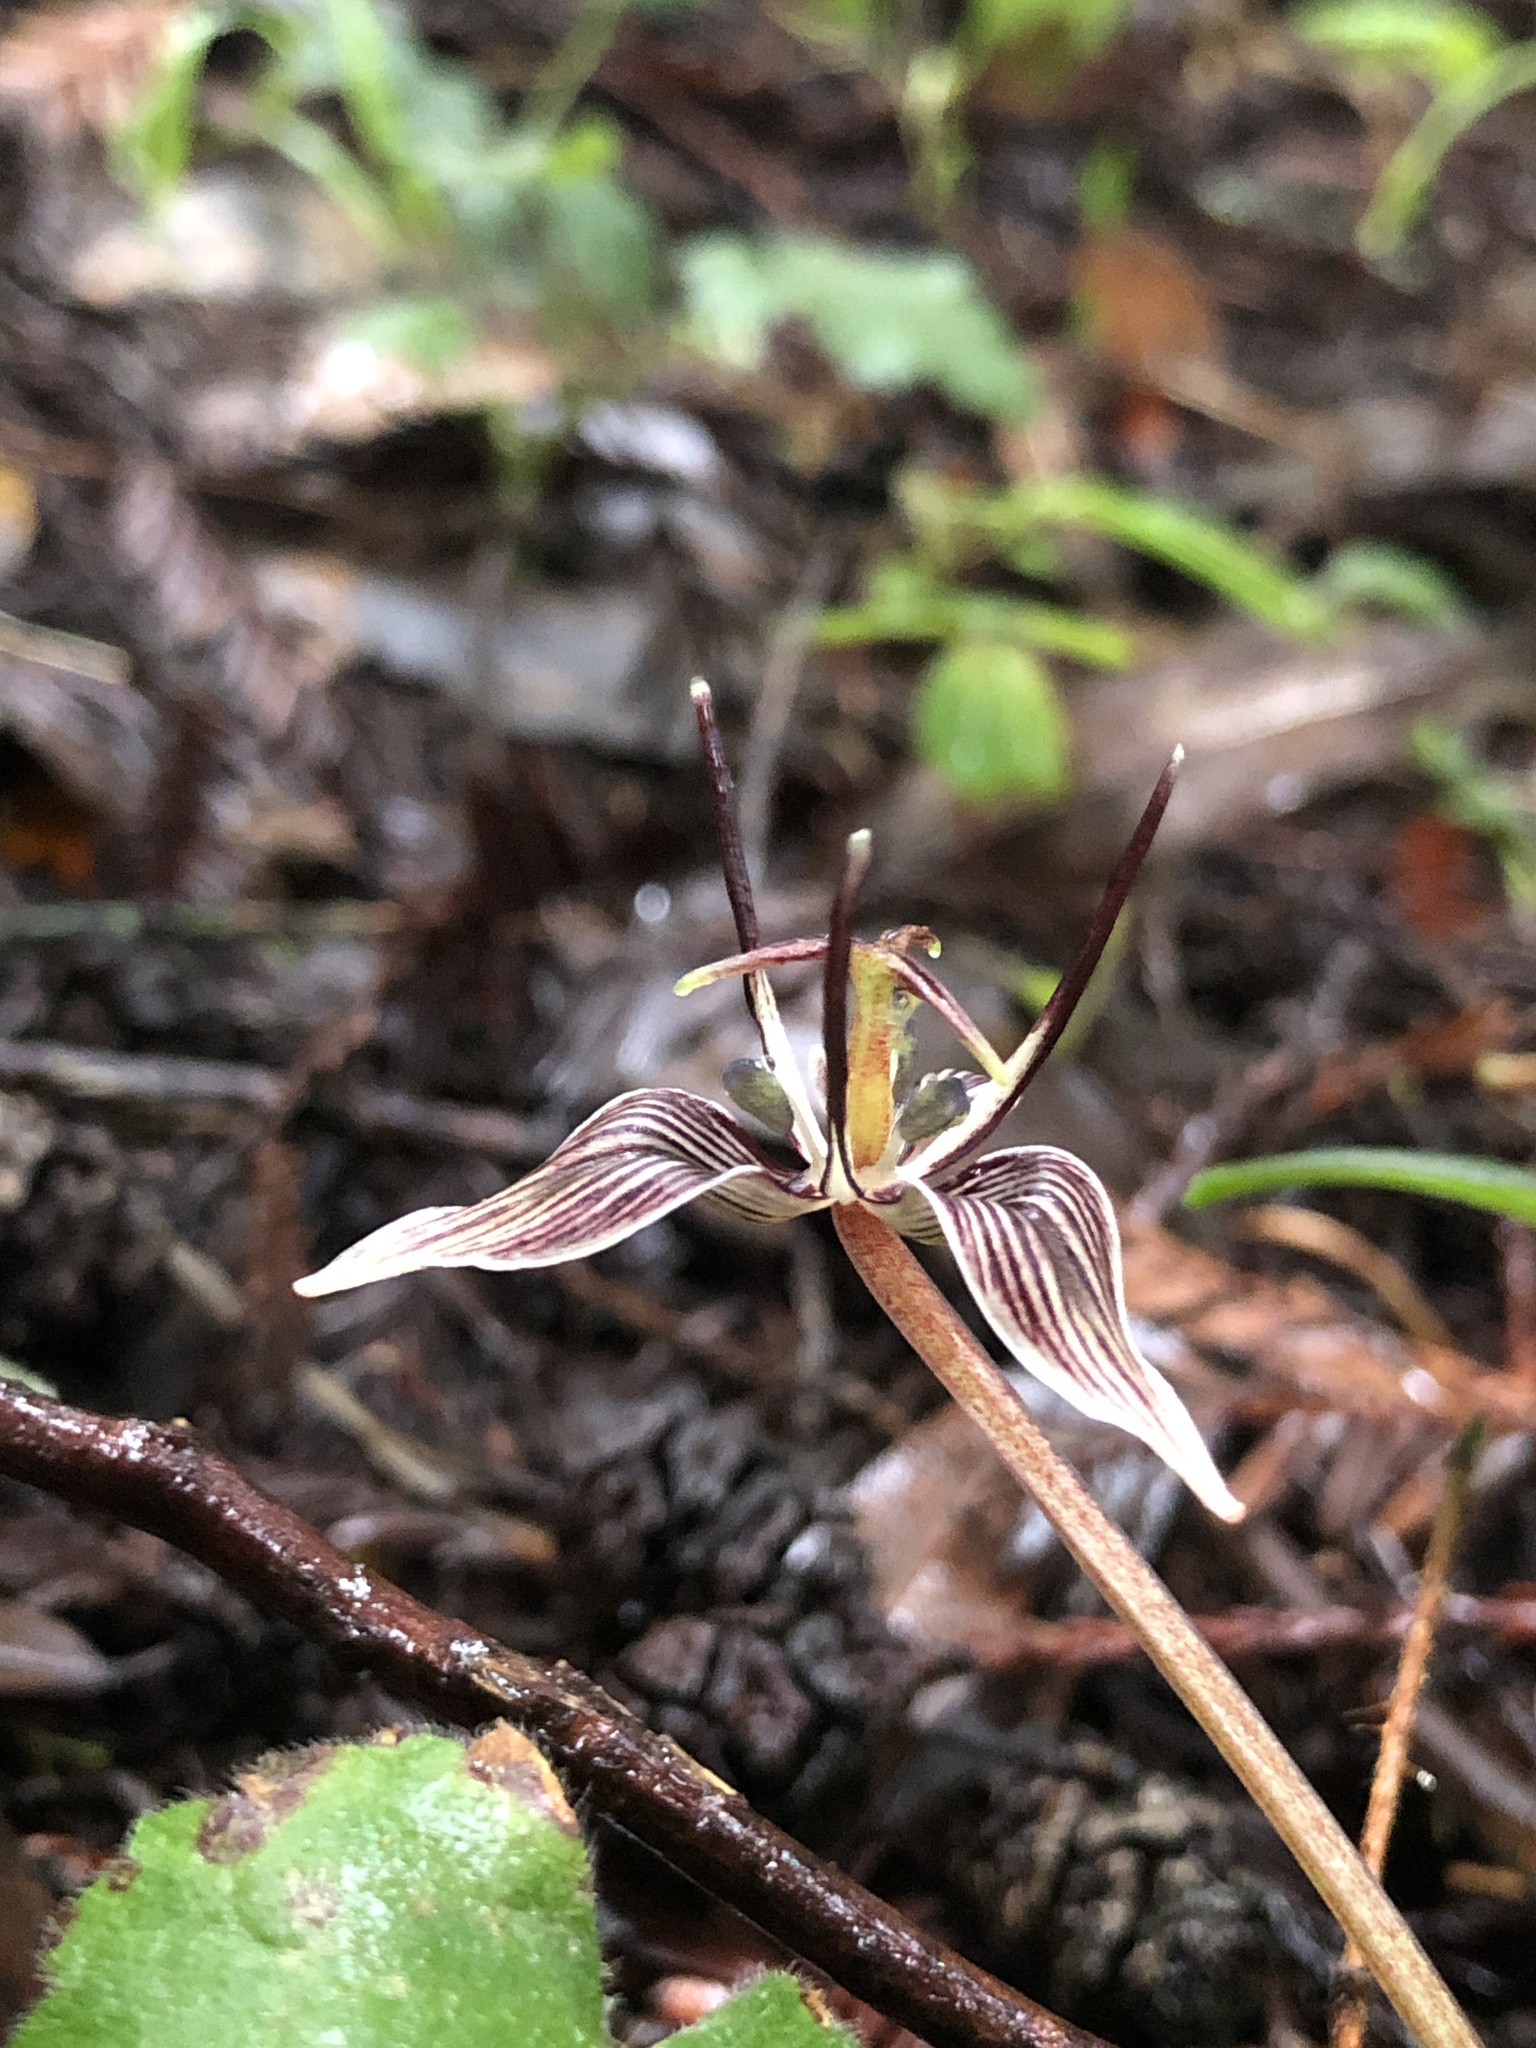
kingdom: Plantae
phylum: Tracheophyta
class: Liliopsida
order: Liliales
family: Liliaceae
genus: Scoliopus
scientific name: Scoliopus bigelovii
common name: Foetid adder's-tongue
